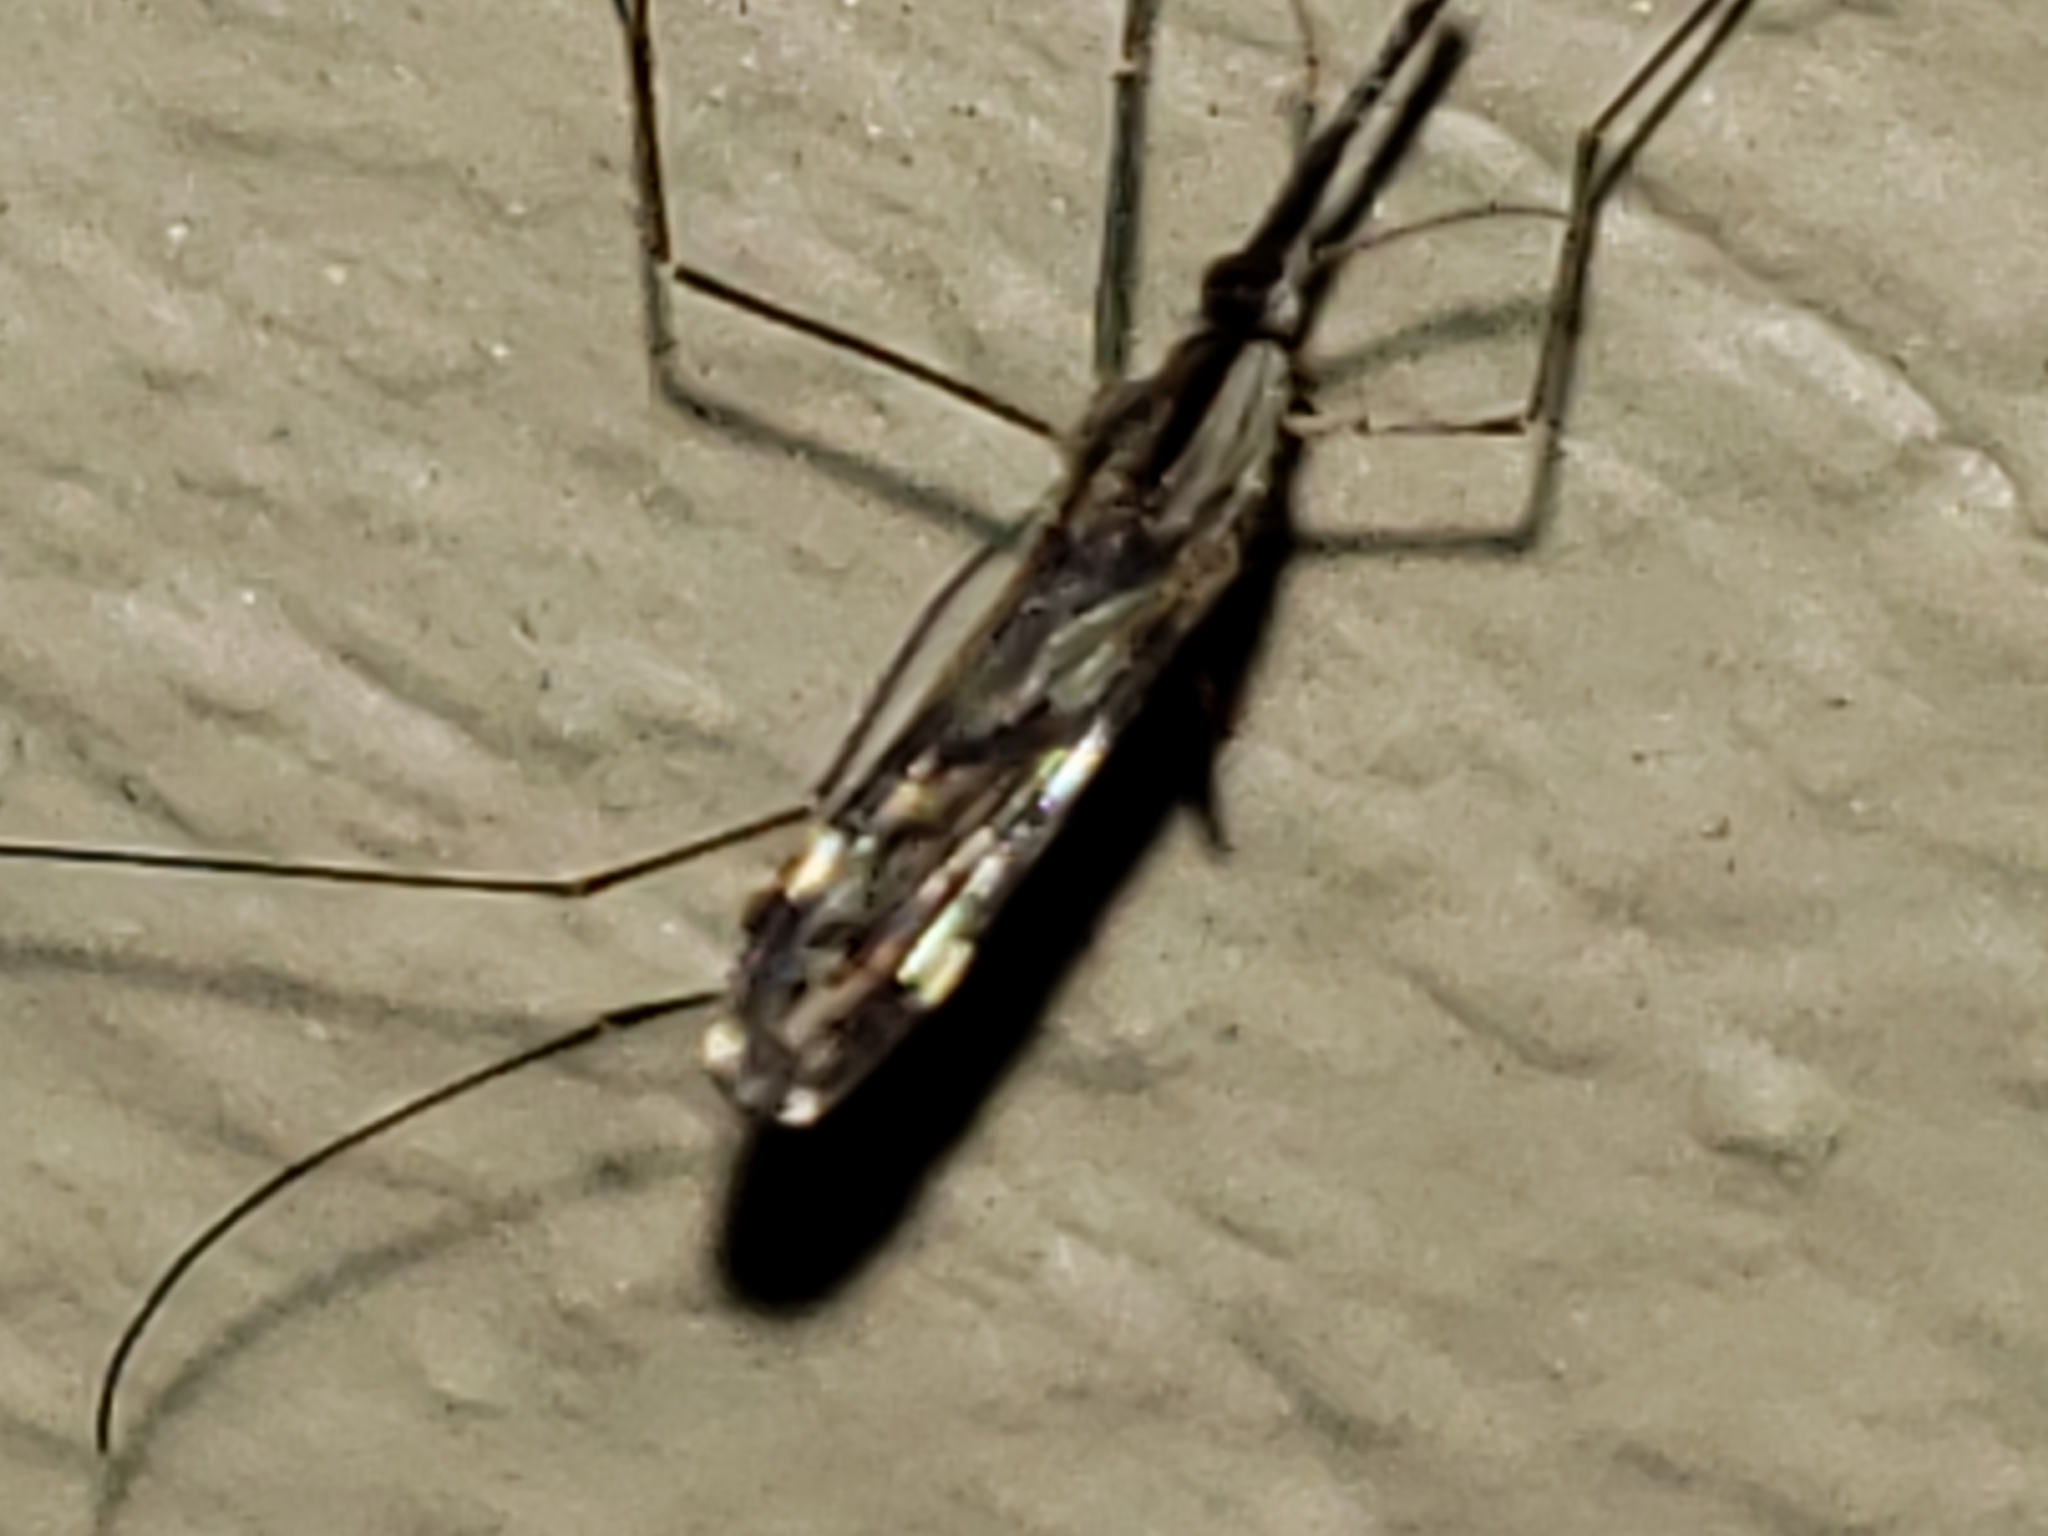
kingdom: Animalia
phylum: Arthropoda
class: Insecta
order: Diptera
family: Culicidae
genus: Anopheles
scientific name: Anopheles punctipennis
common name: Woodland malaria mosquito
